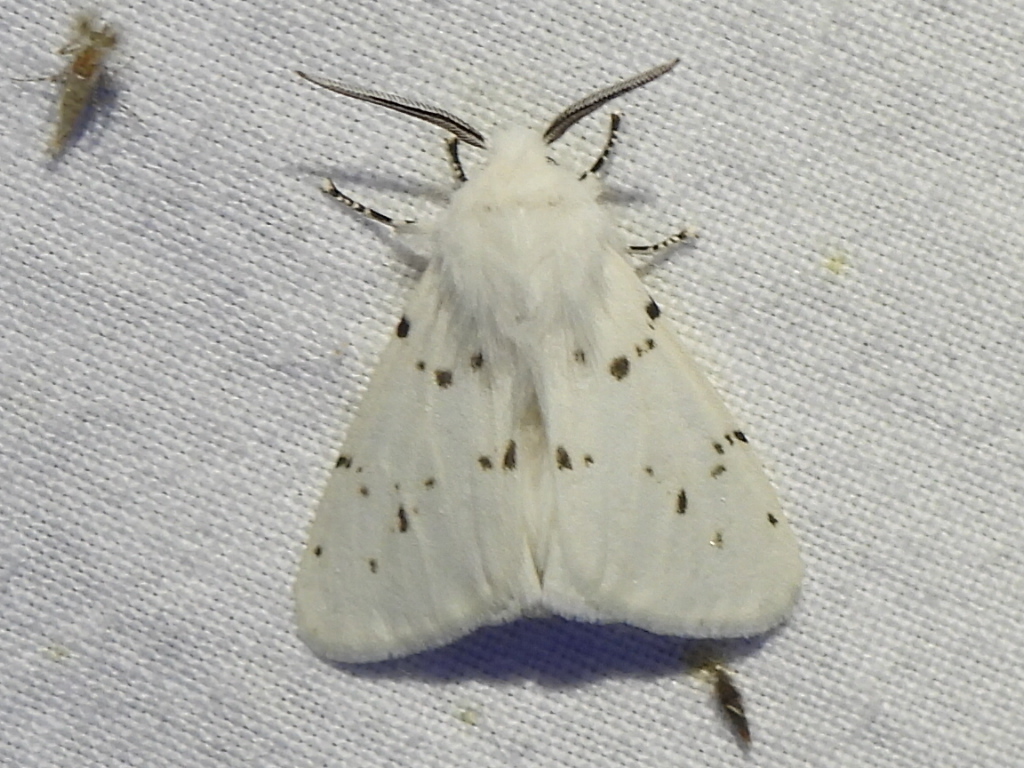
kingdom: Animalia
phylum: Arthropoda
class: Insecta
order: Lepidoptera
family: Erebidae
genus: Hyphantria
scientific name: Hyphantria cunea
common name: American white moth
